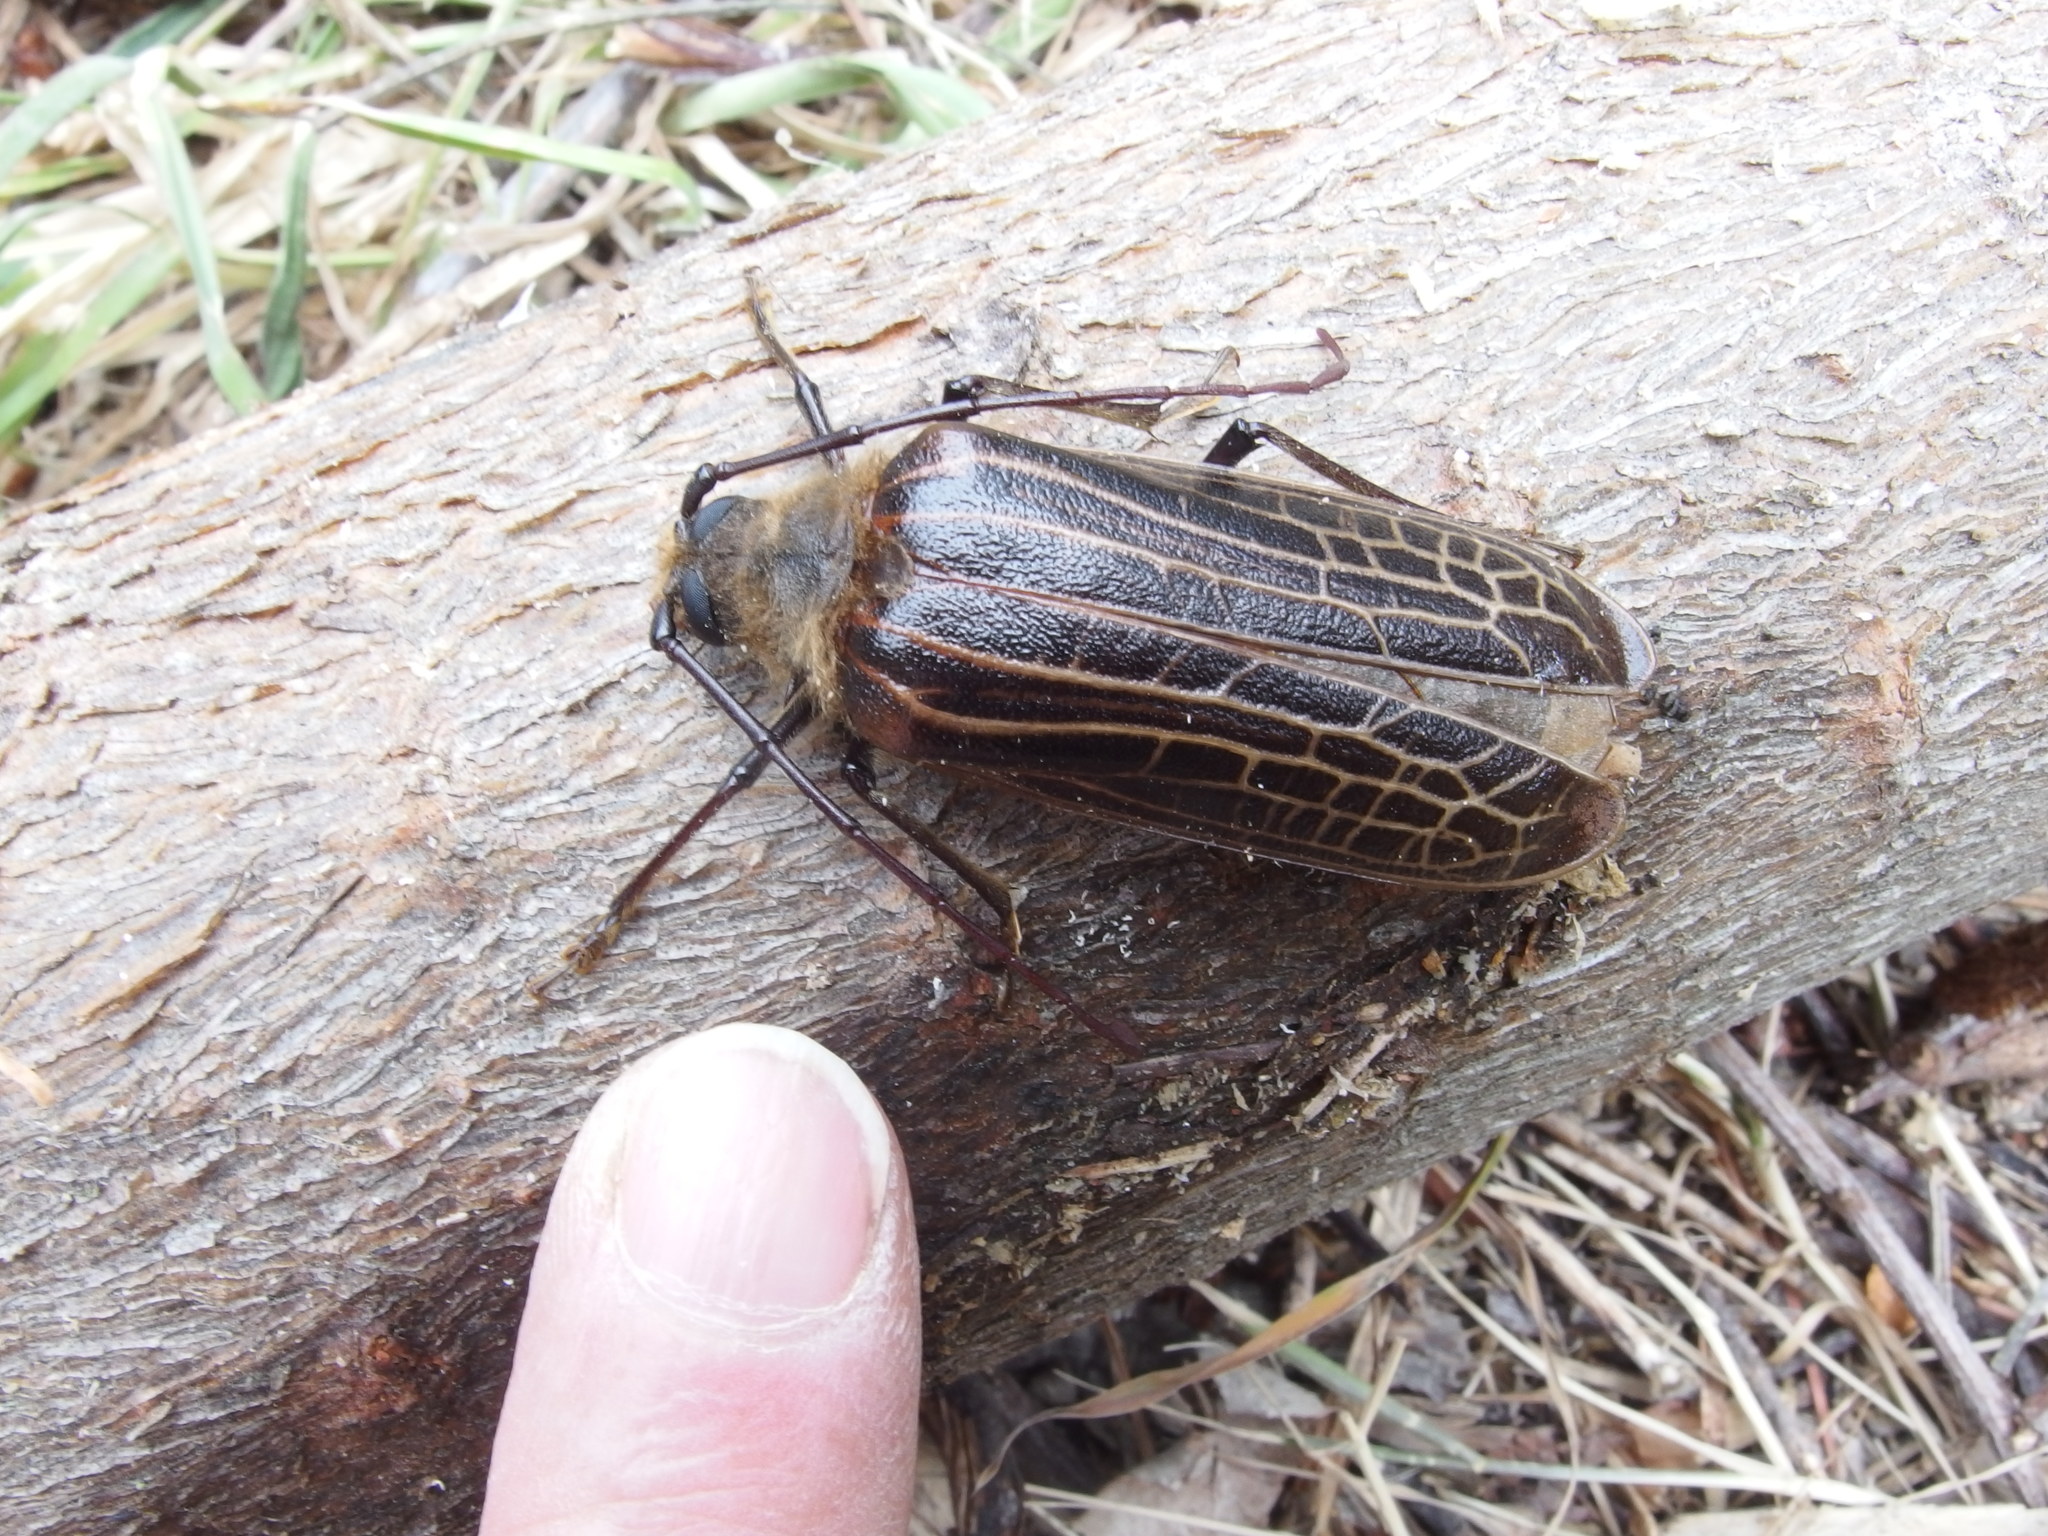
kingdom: Animalia
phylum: Arthropoda
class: Insecta
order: Coleoptera
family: Cerambycidae
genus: Prionoplus
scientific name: Prionoplus reticularis
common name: Huhu beetle
